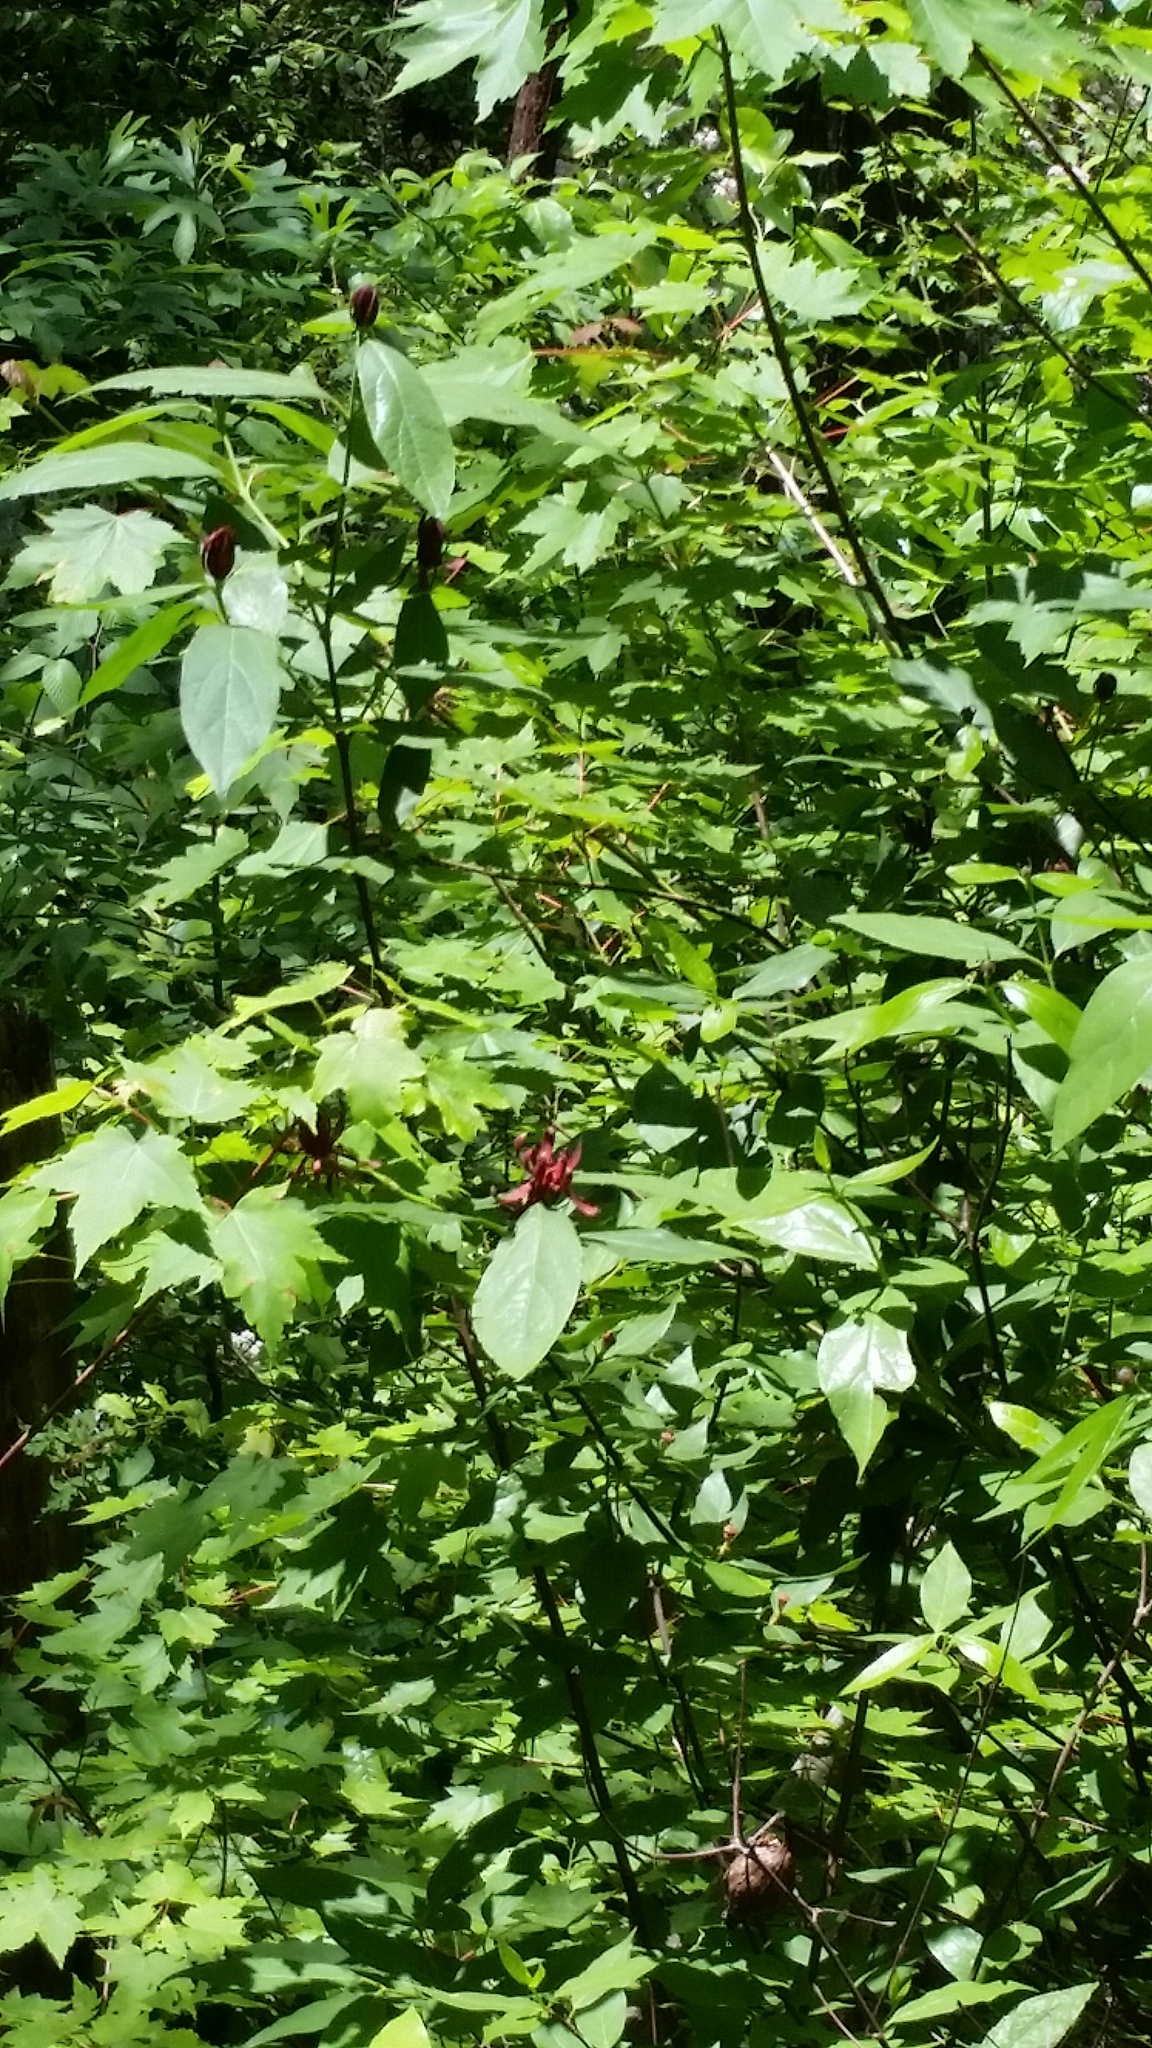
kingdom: Plantae
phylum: Tracheophyta
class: Magnoliopsida
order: Laurales
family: Calycanthaceae
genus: Calycanthus
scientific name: Calycanthus floridus
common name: Carolina-allspice
